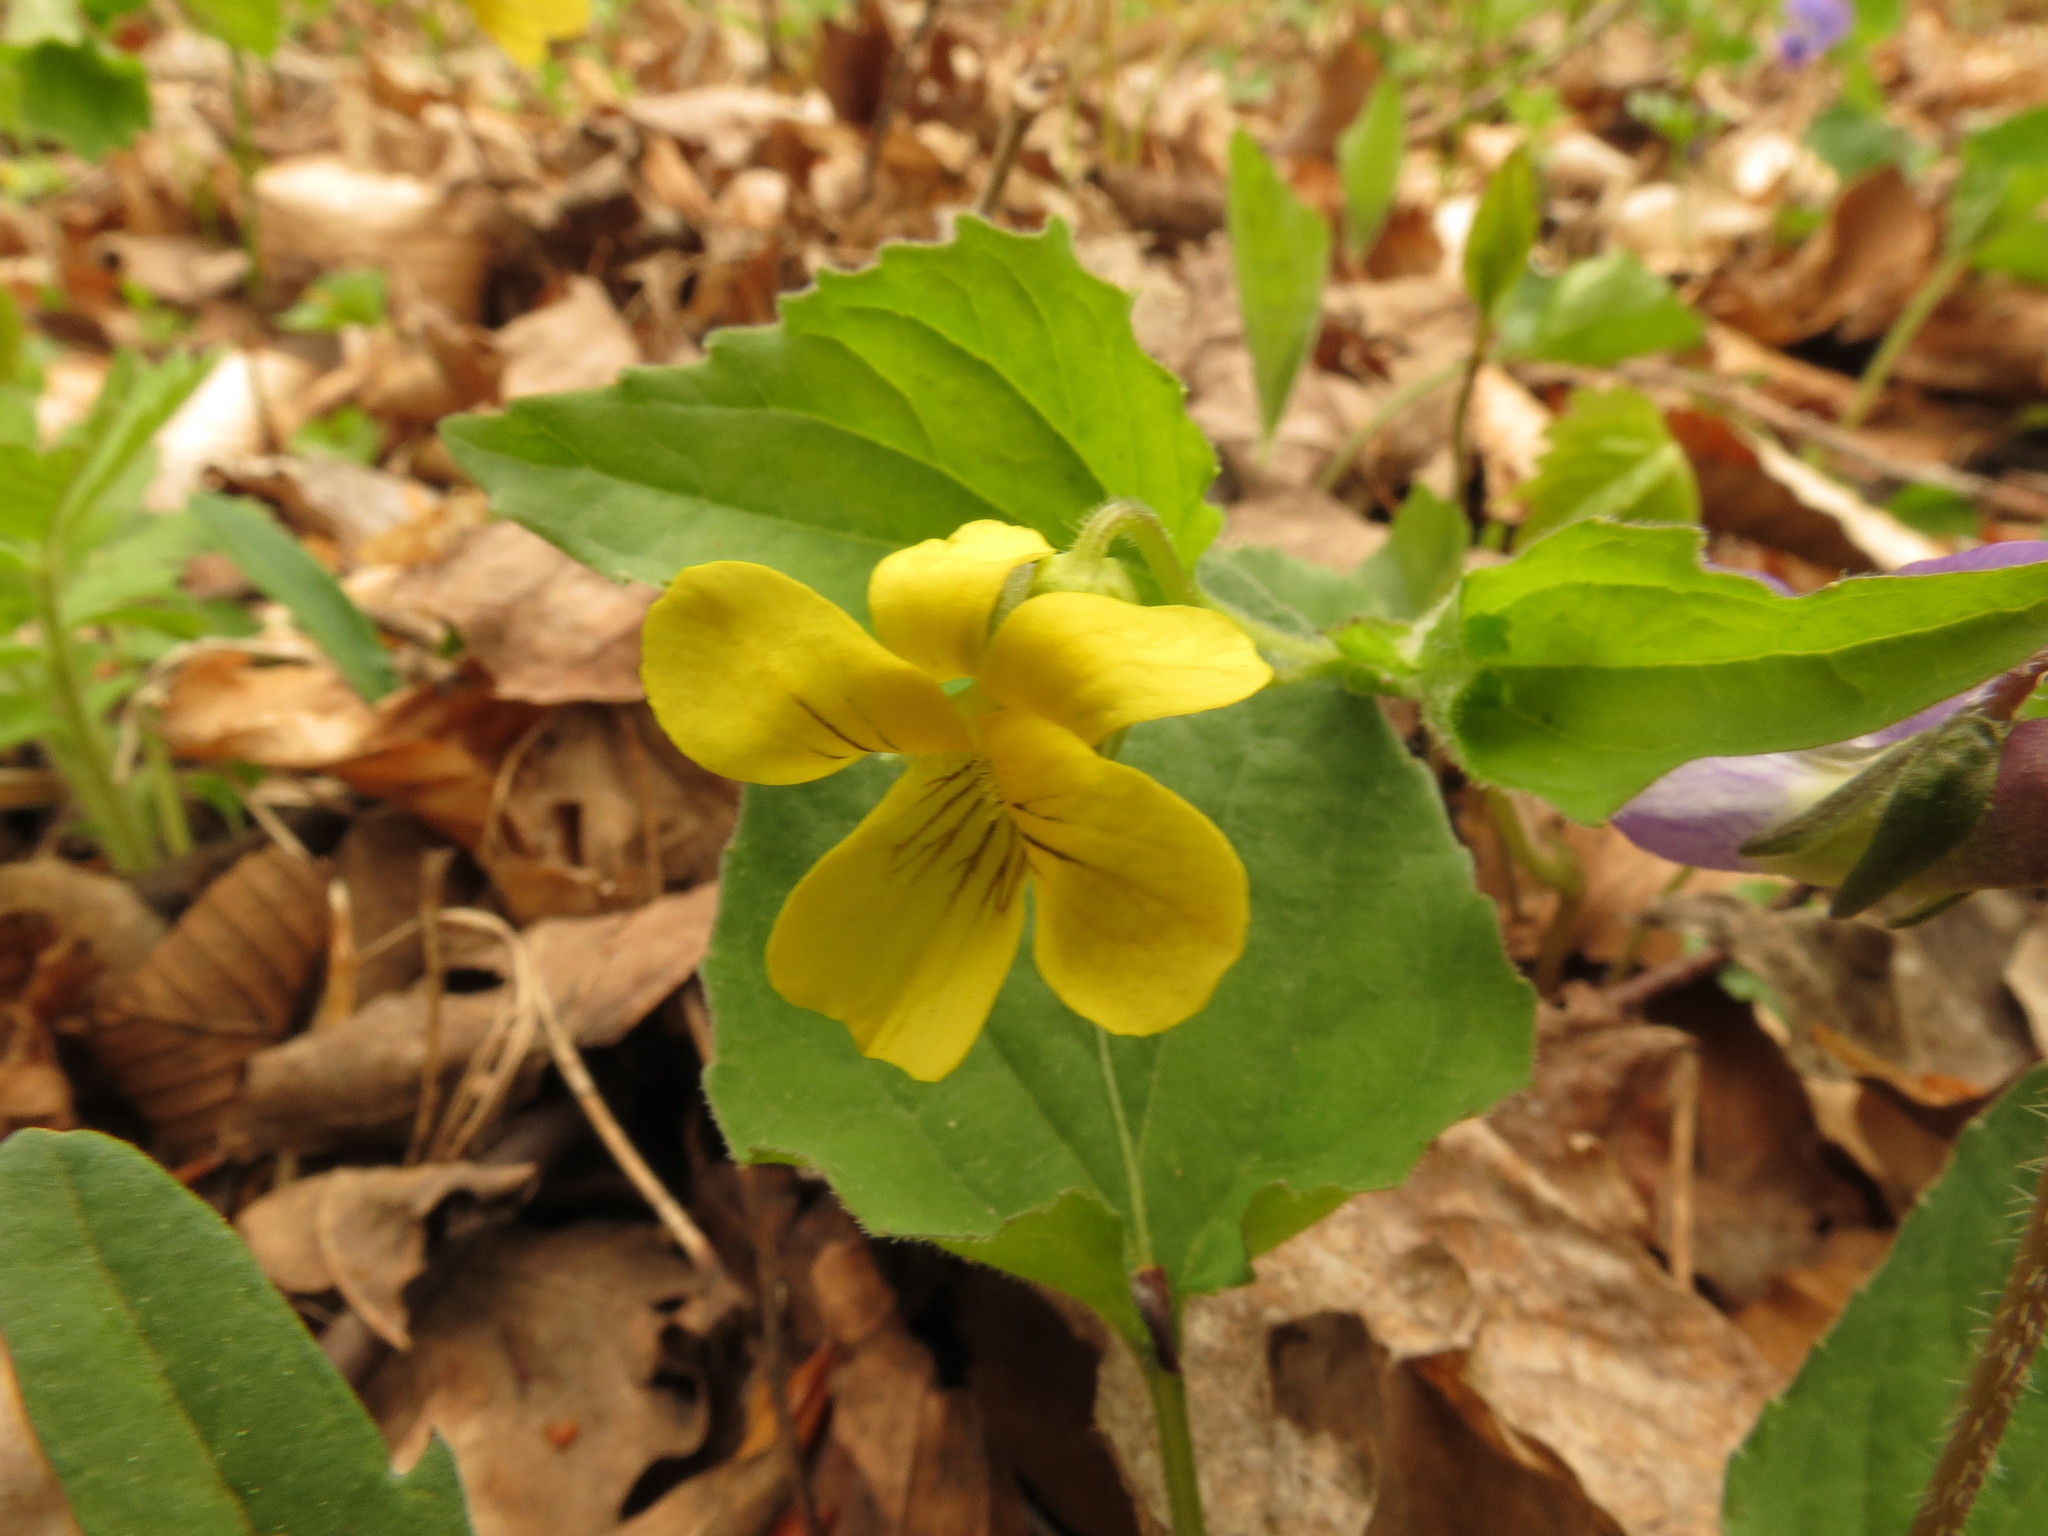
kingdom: Plantae
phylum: Tracheophyta
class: Magnoliopsida
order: Malpighiales
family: Violaceae
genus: Viola
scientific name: Viola eriocarpa
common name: Smooth yellow violet
